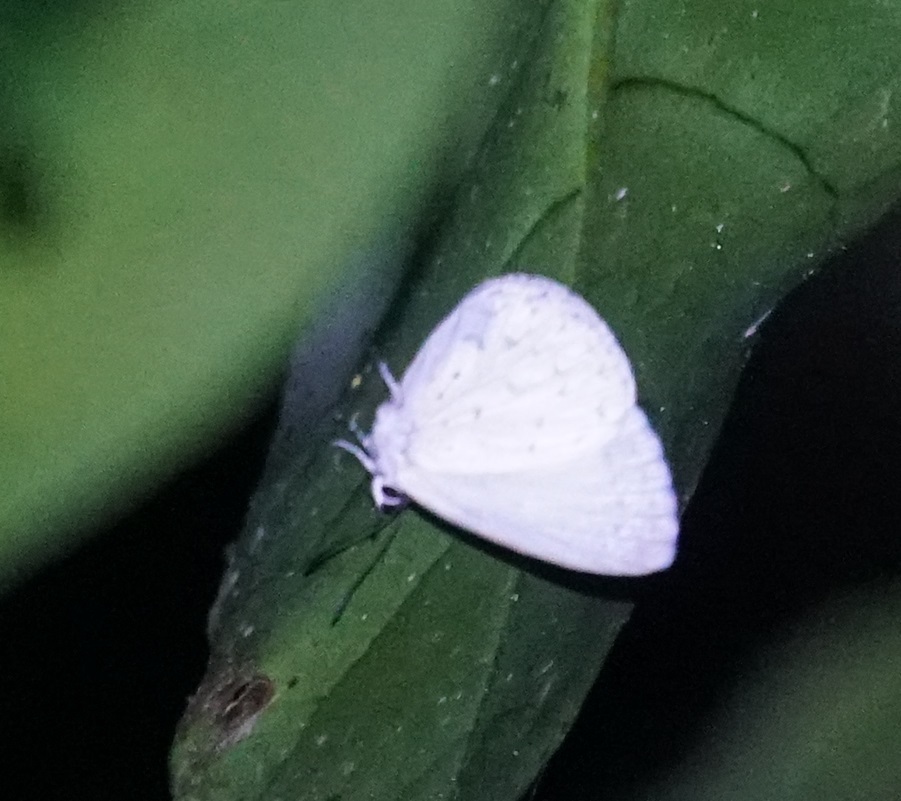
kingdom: Animalia
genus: Eirmocides
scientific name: Eirmocides
